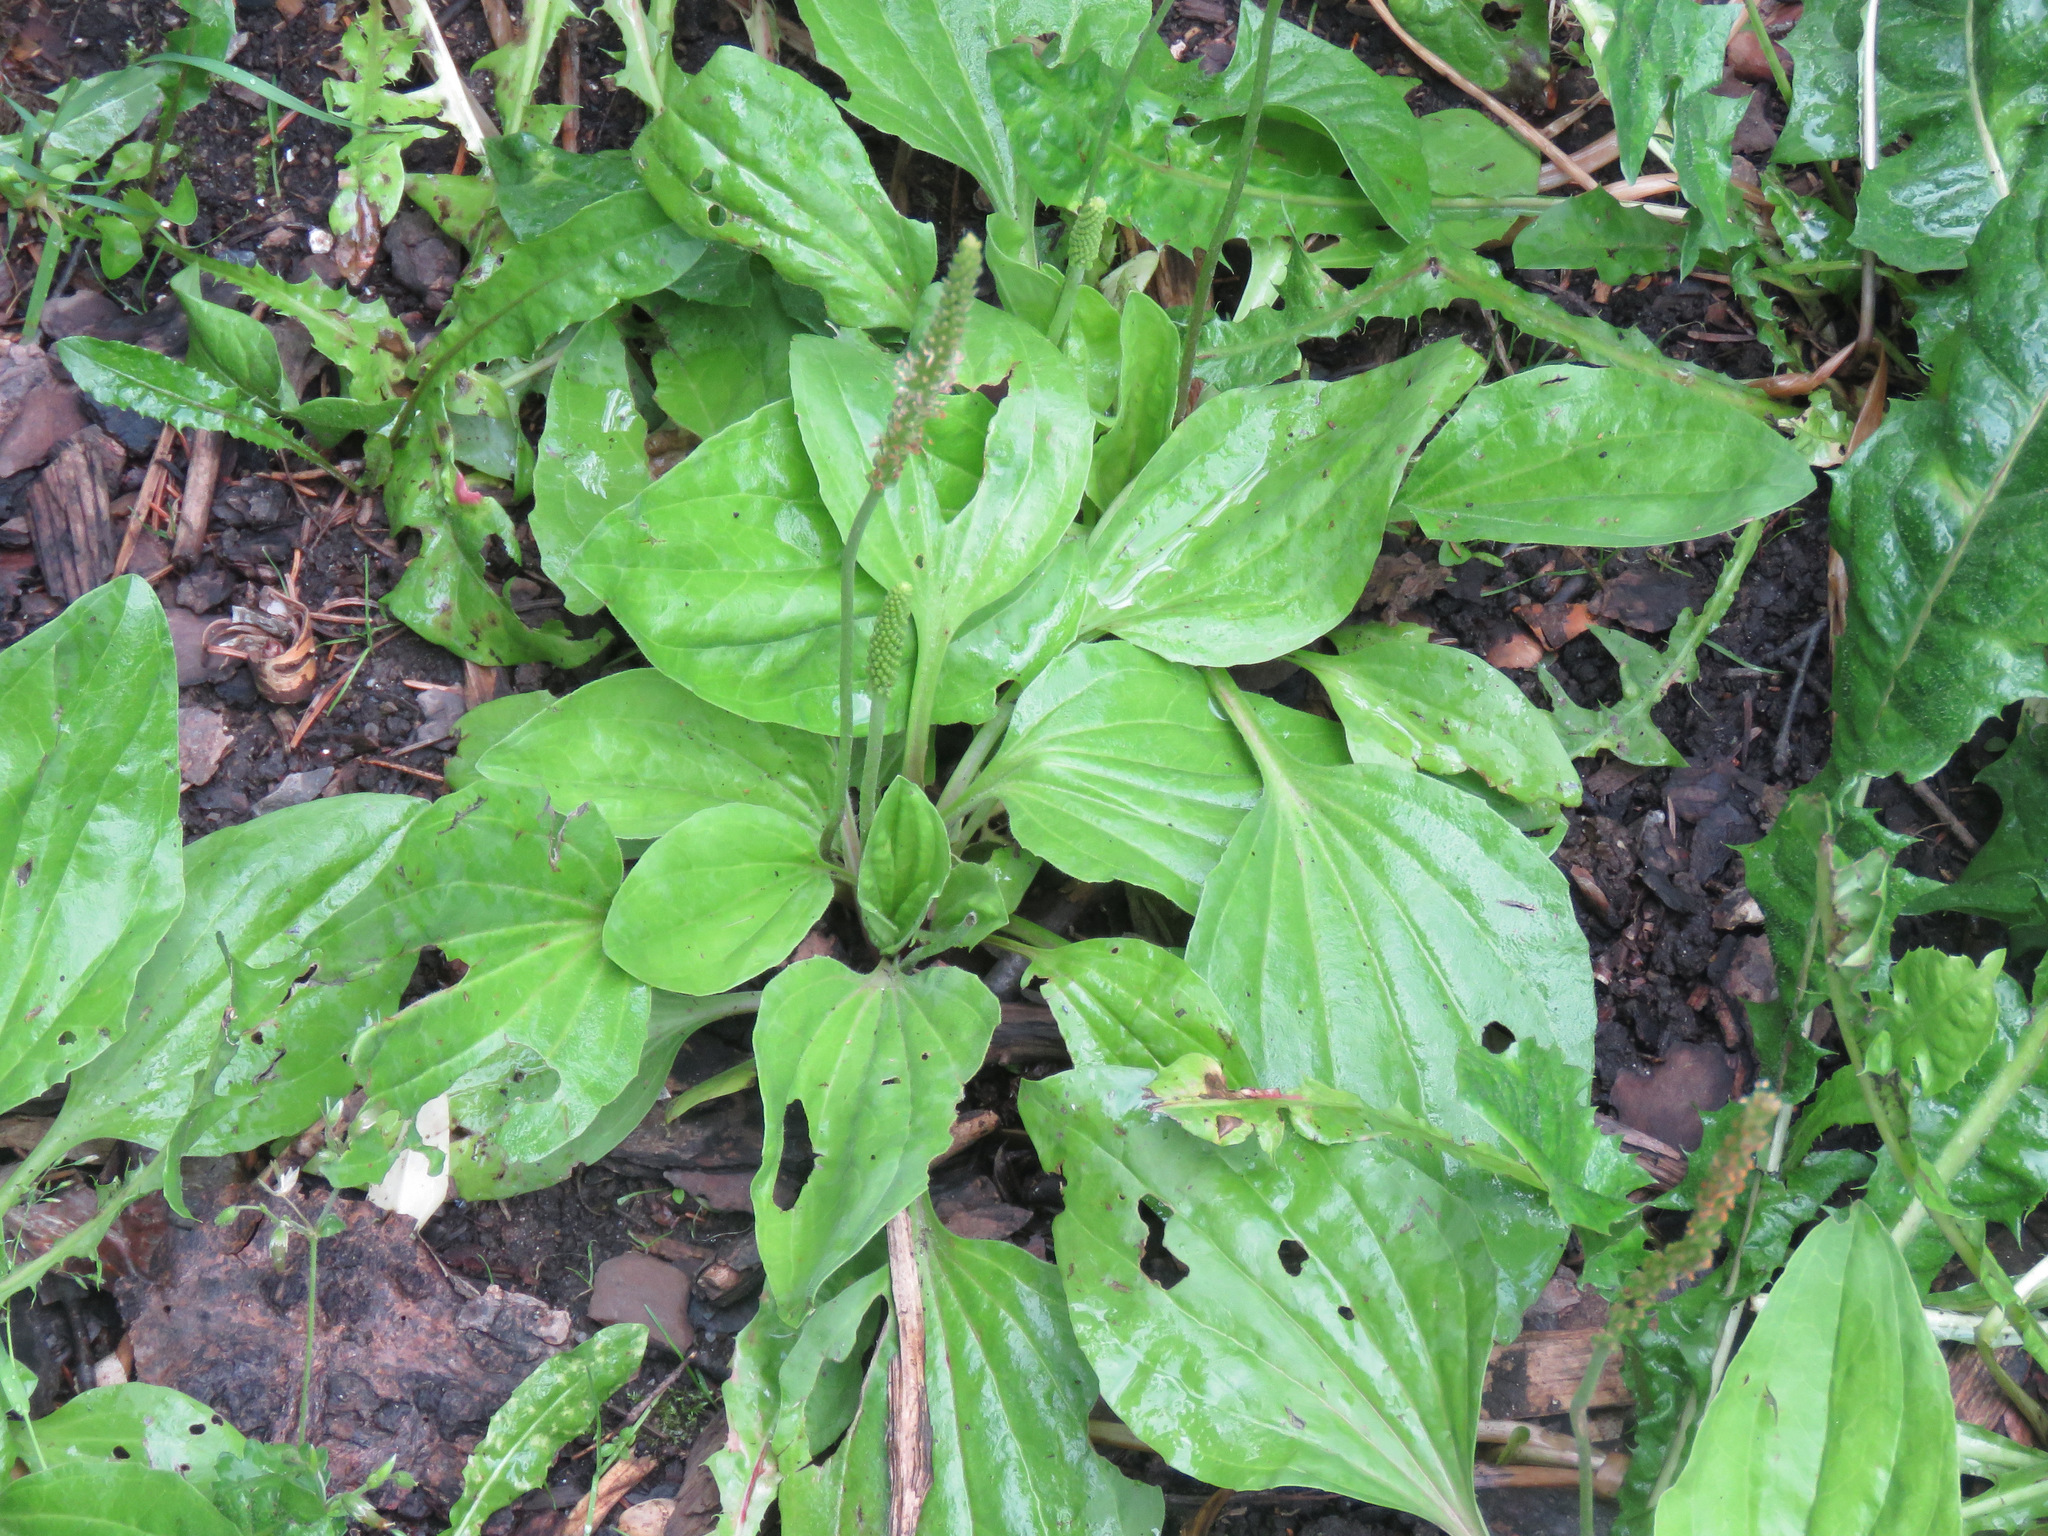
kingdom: Plantae
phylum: Tracheophyta
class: Magnoliopsida
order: Lamiales
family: Plantaginaceae
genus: Plantago
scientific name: Plantago major
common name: Common plantain
